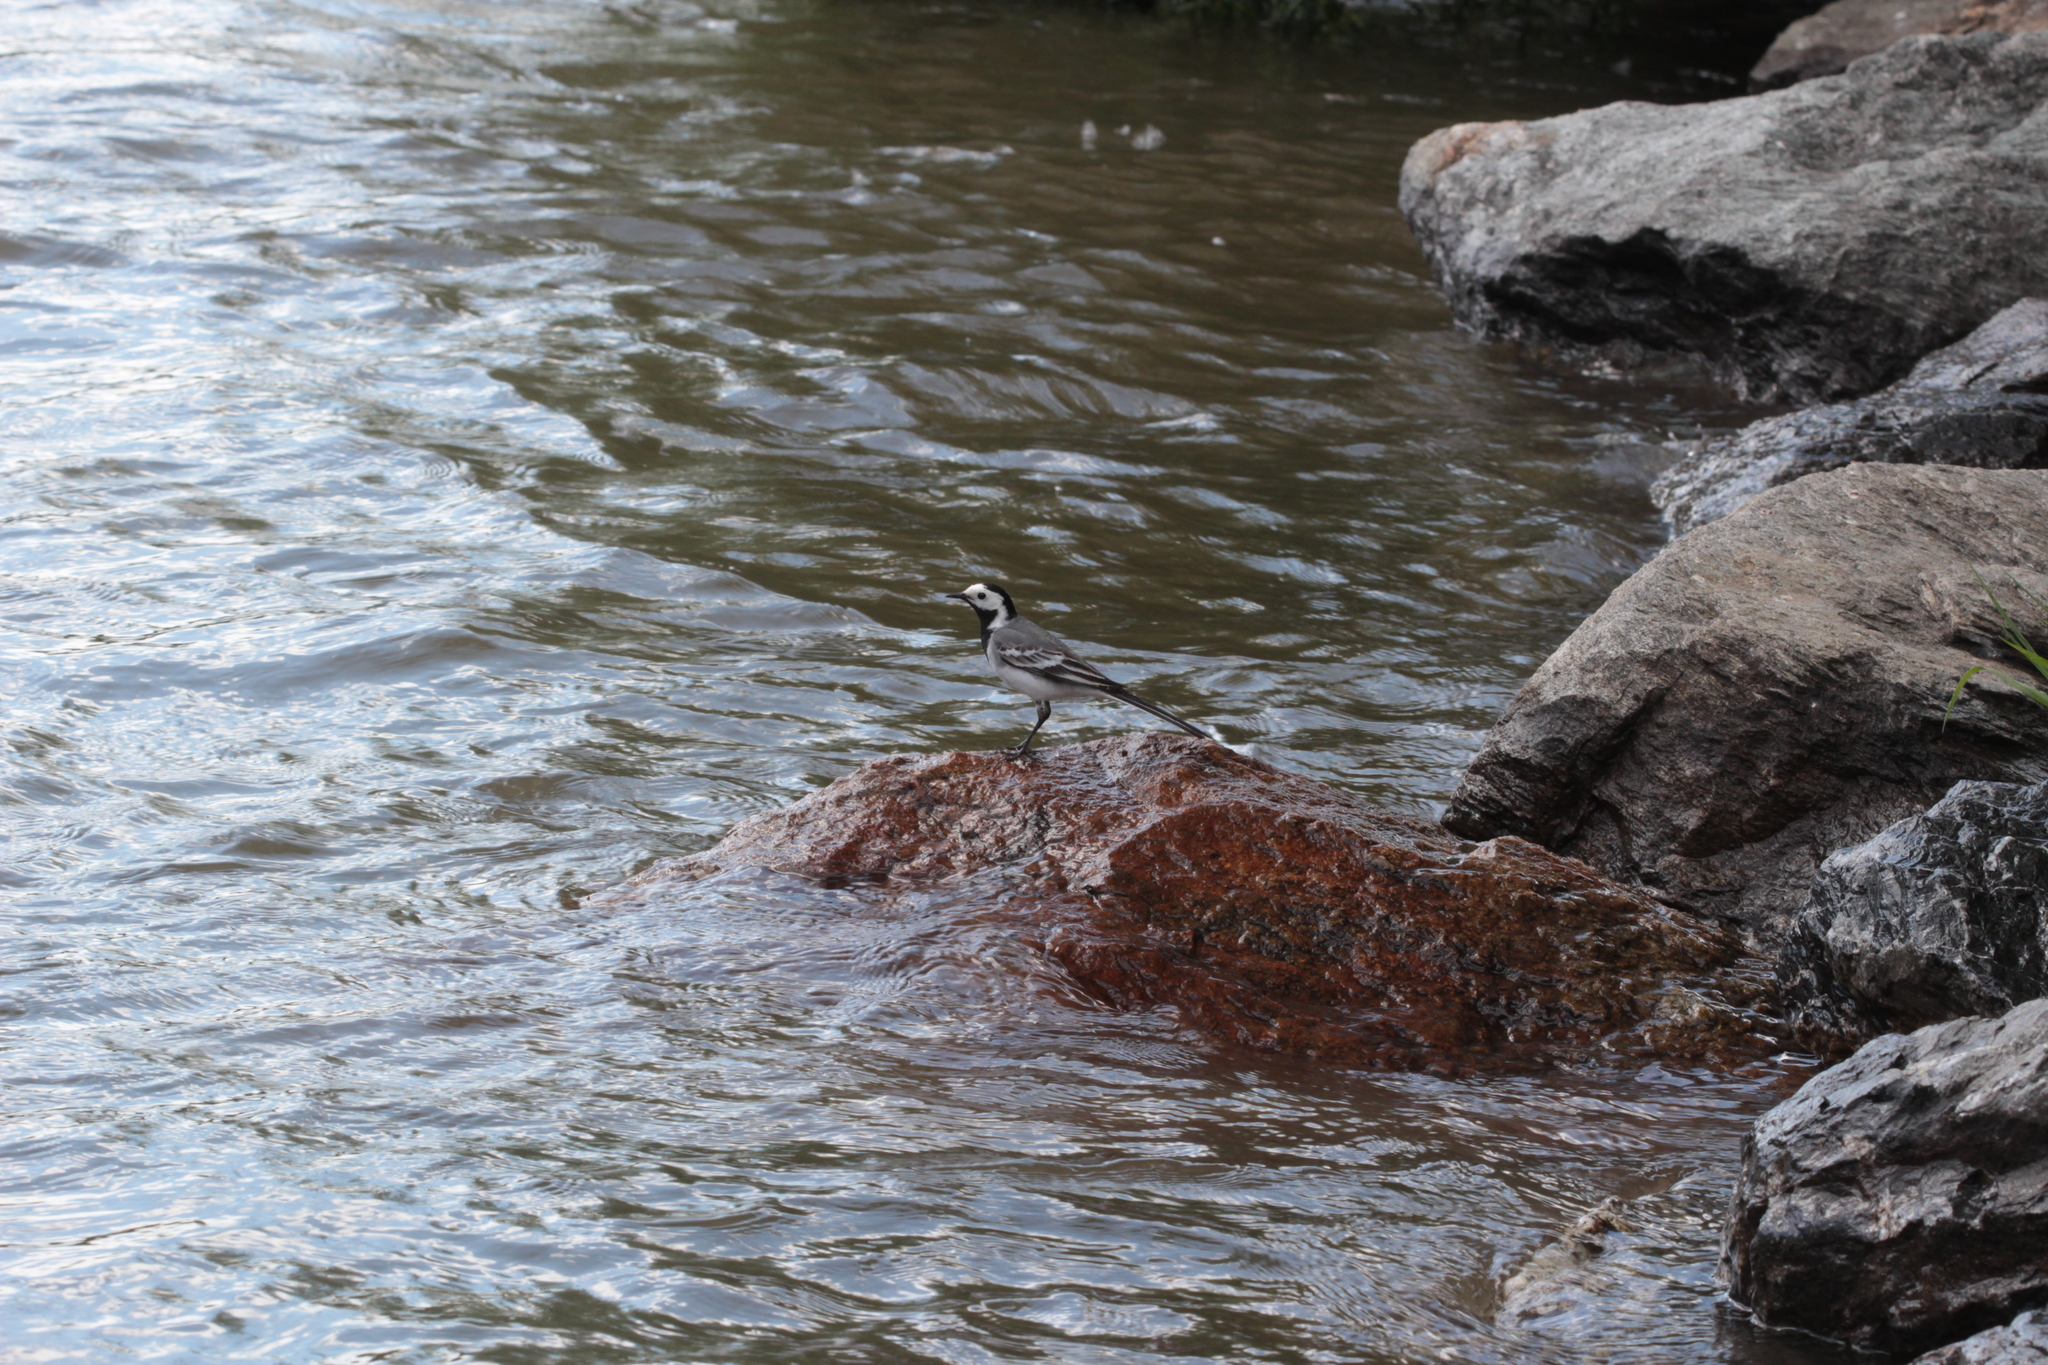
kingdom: Animalia
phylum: Chordata
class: Aves
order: Passeriformes
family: Motacillidae
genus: Motacilla
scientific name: Motacilla alba
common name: White wagtail
